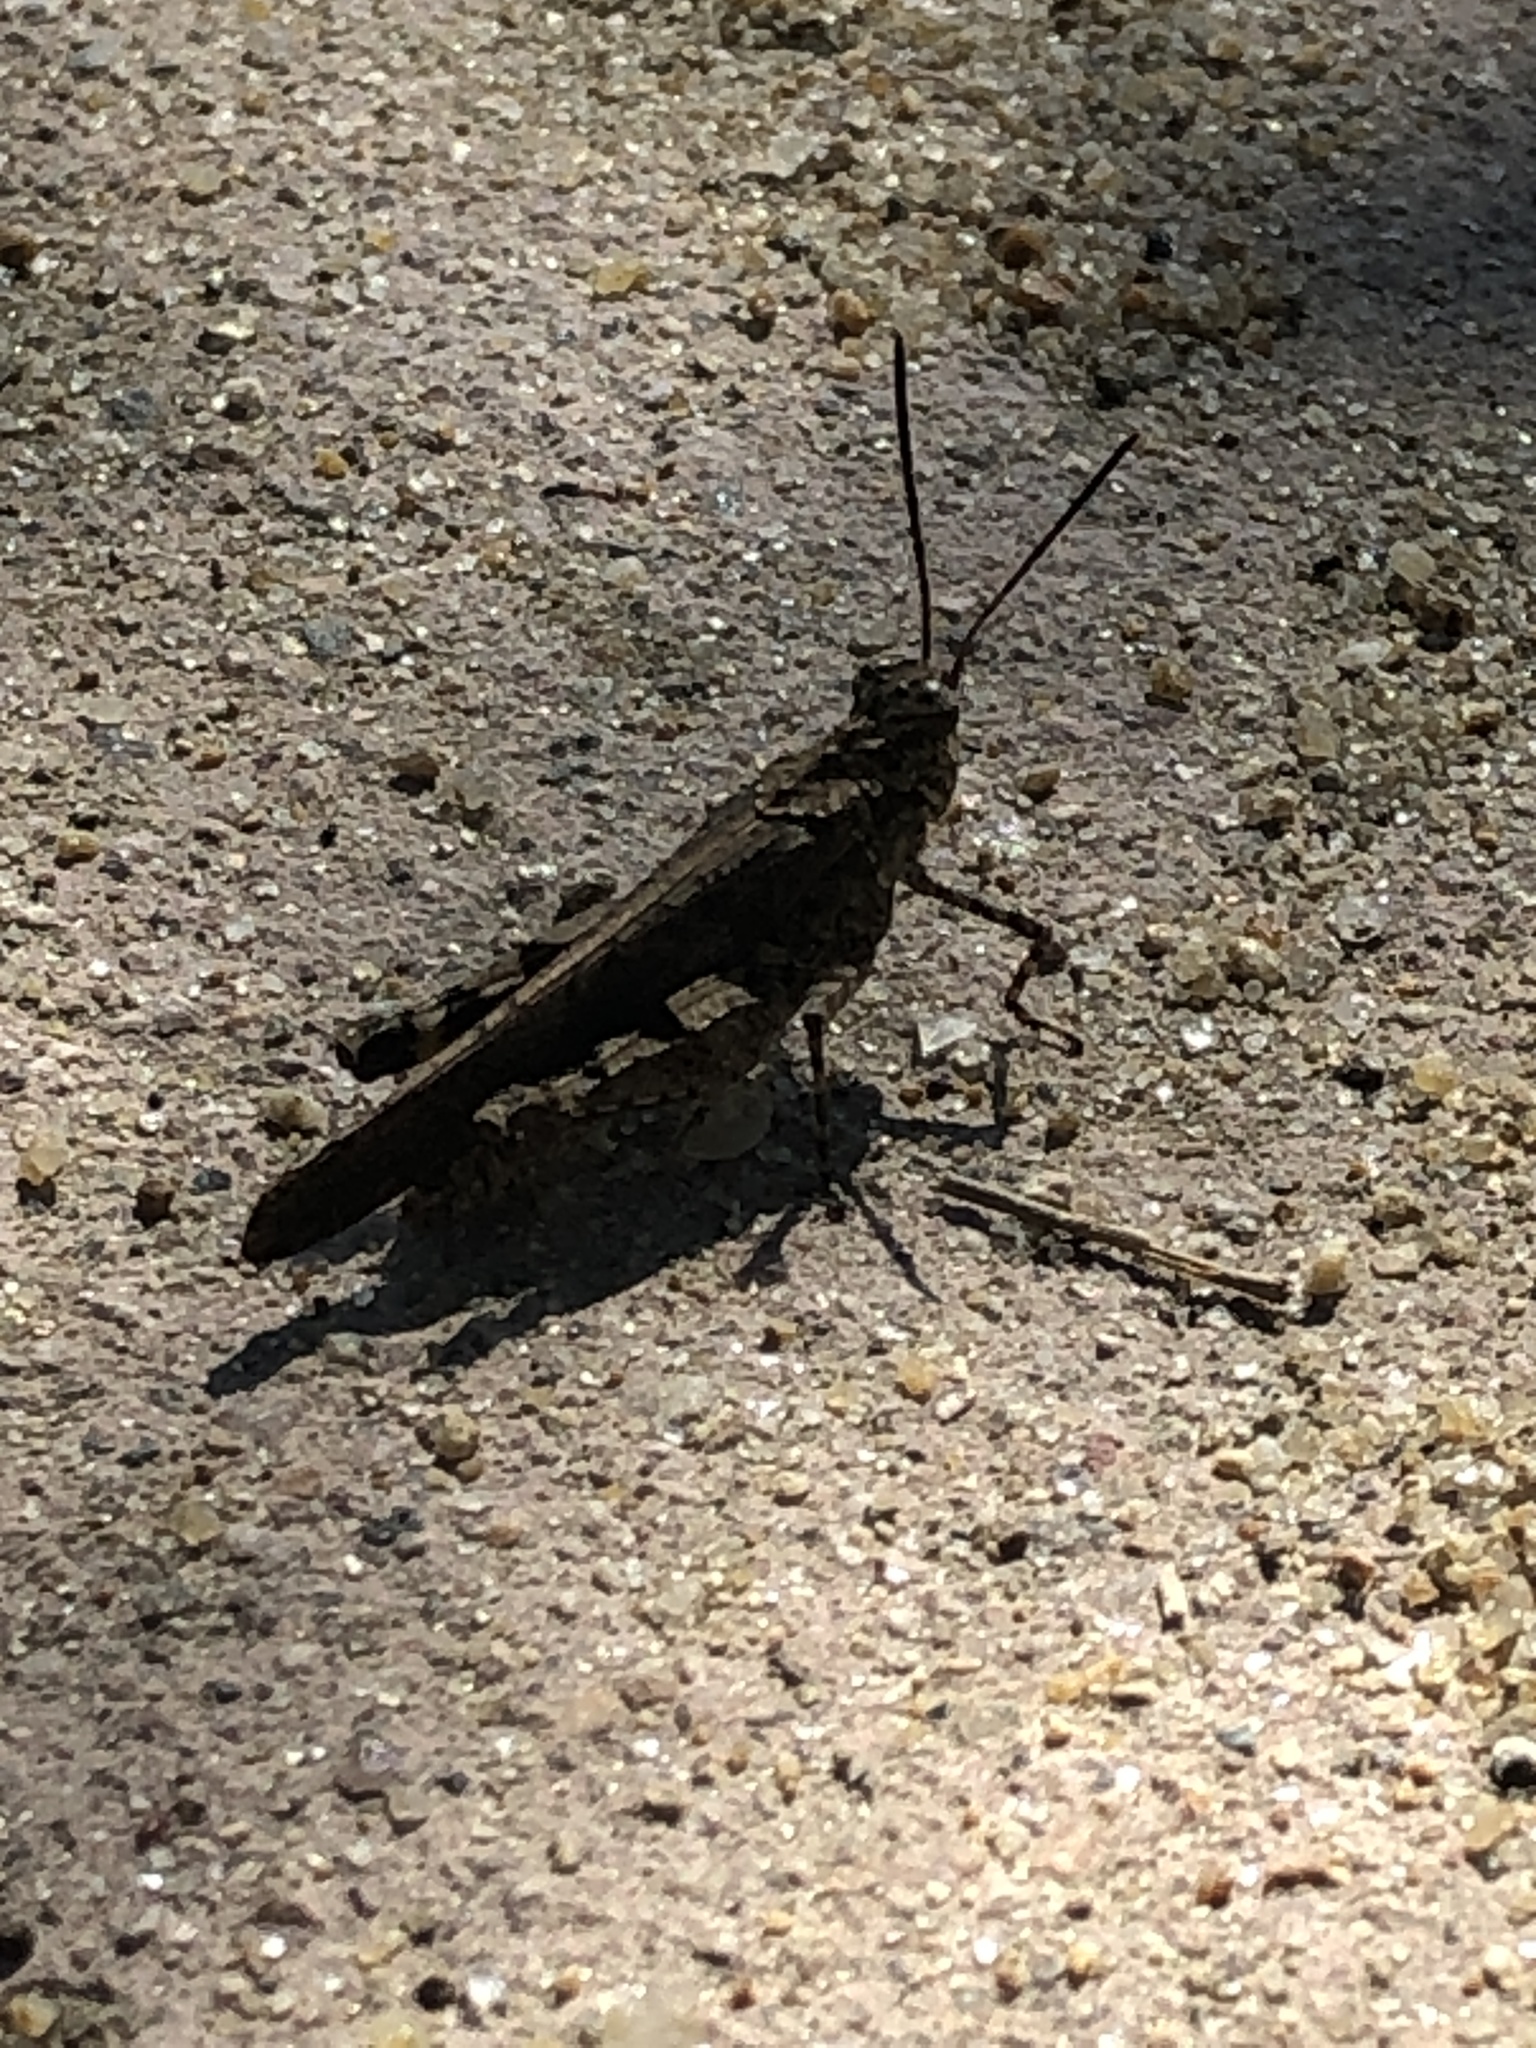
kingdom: Animalia
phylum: Arthropoda
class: Insecta
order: Orthoptera
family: Acrididae
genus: Trilophidia
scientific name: Trilophidia annulata
